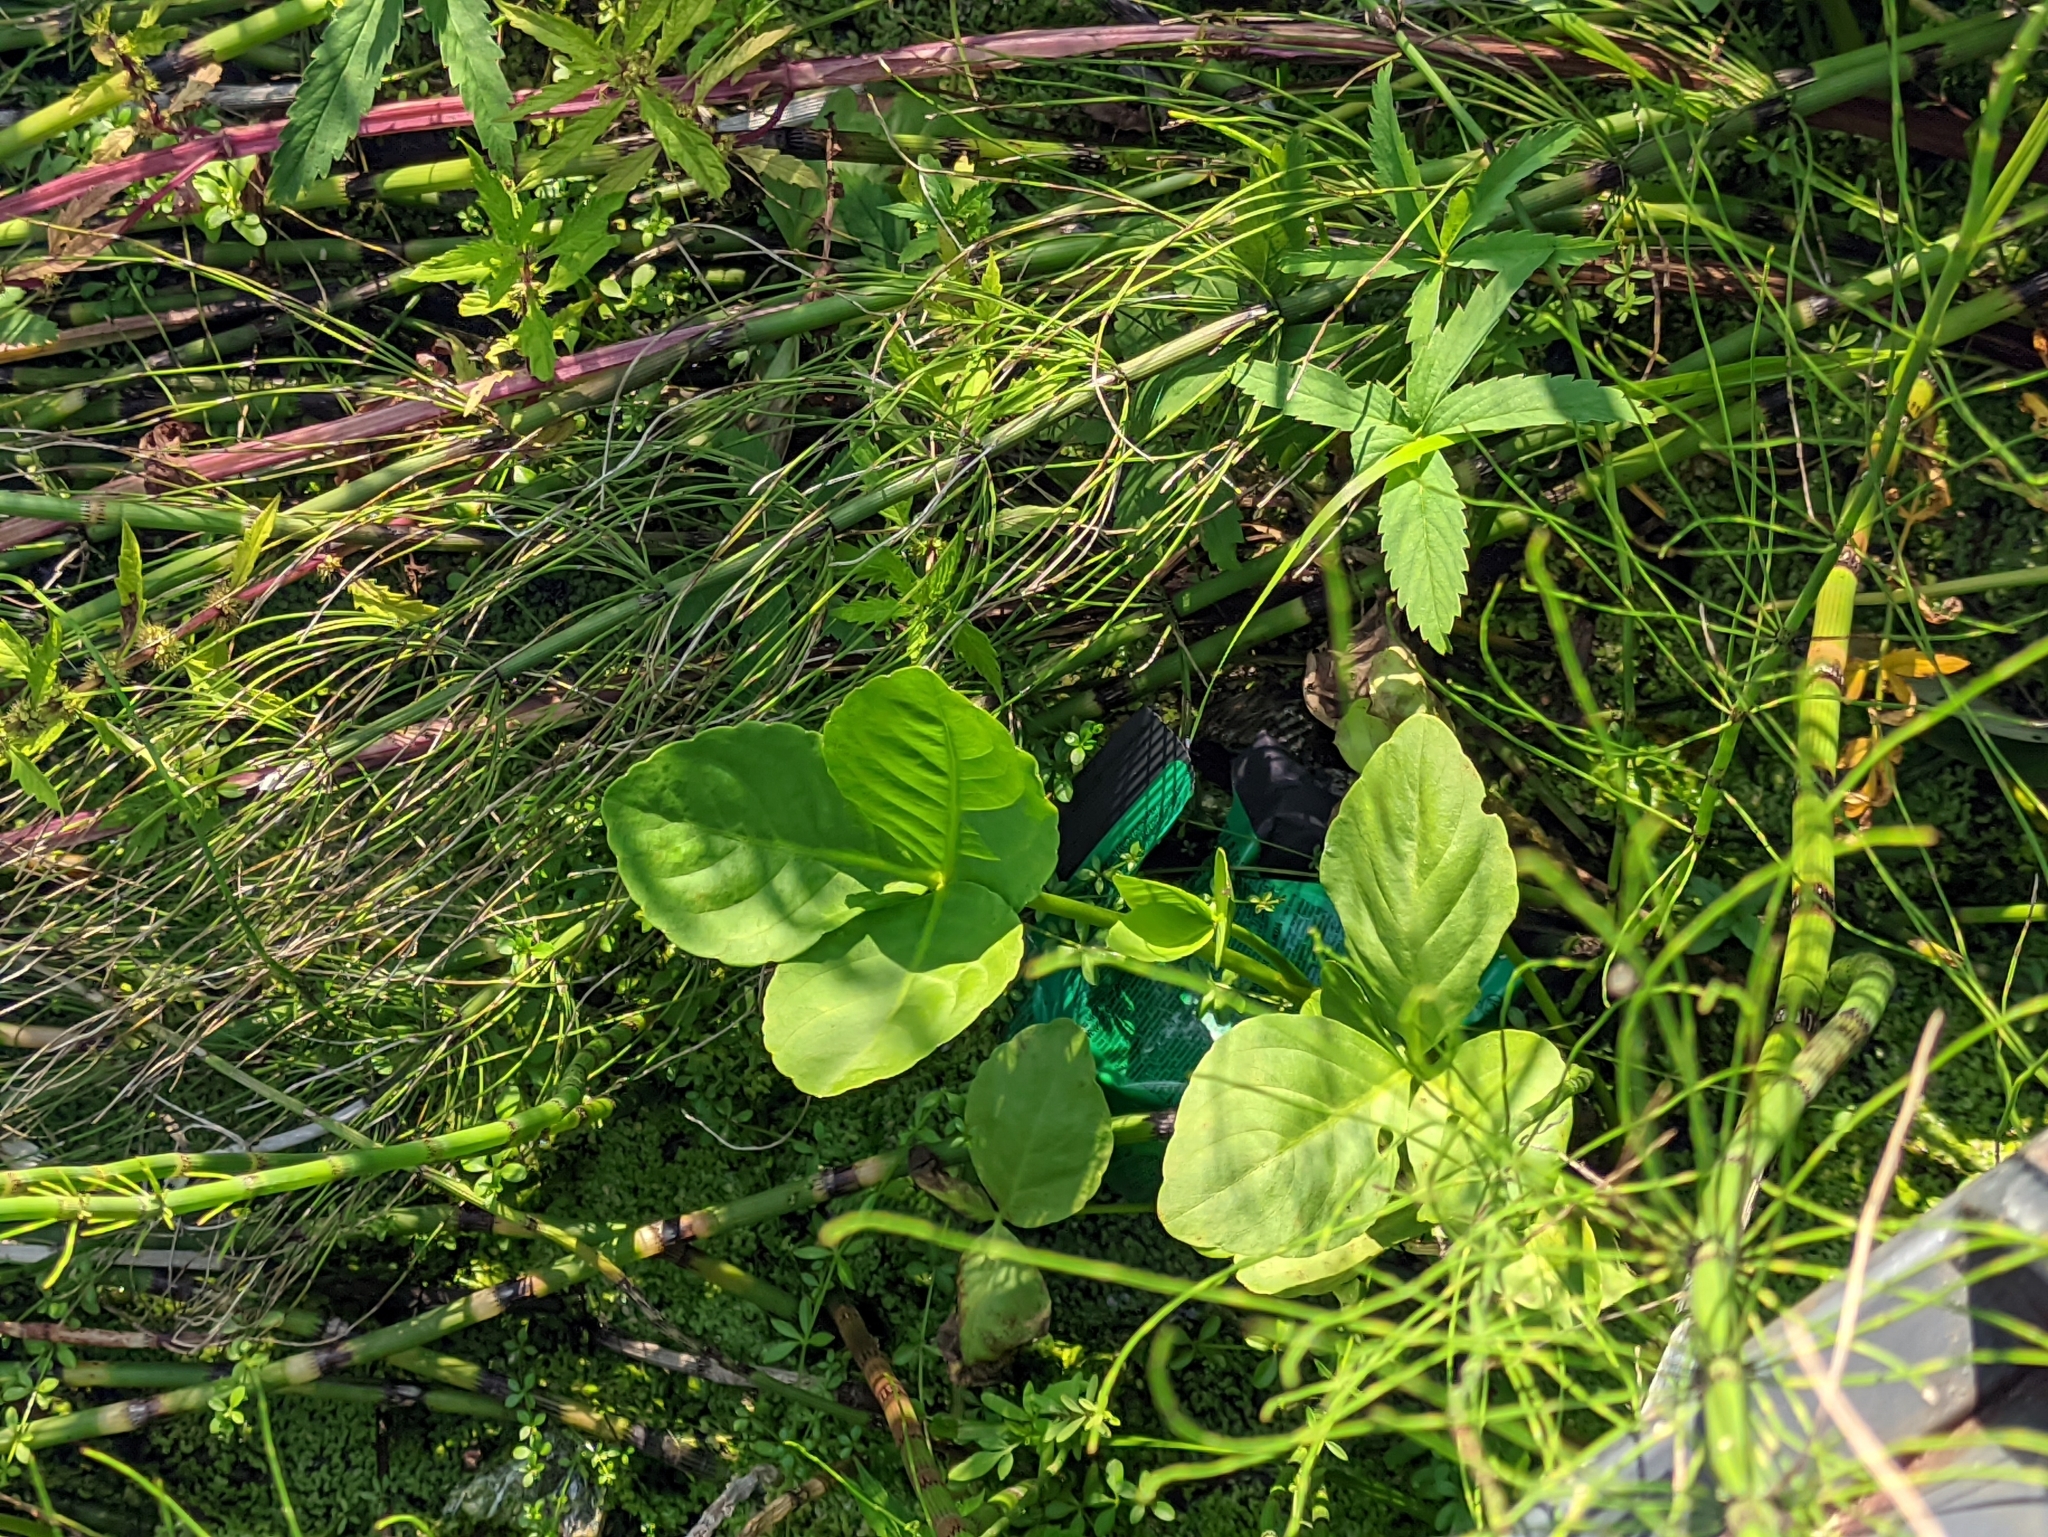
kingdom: Plantae
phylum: Tracheophyta
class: Magnoliopsida
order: Asterales
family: Menyanthaceae
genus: Menyanthes
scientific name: Menyanthes trifoliata
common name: Bogbean
